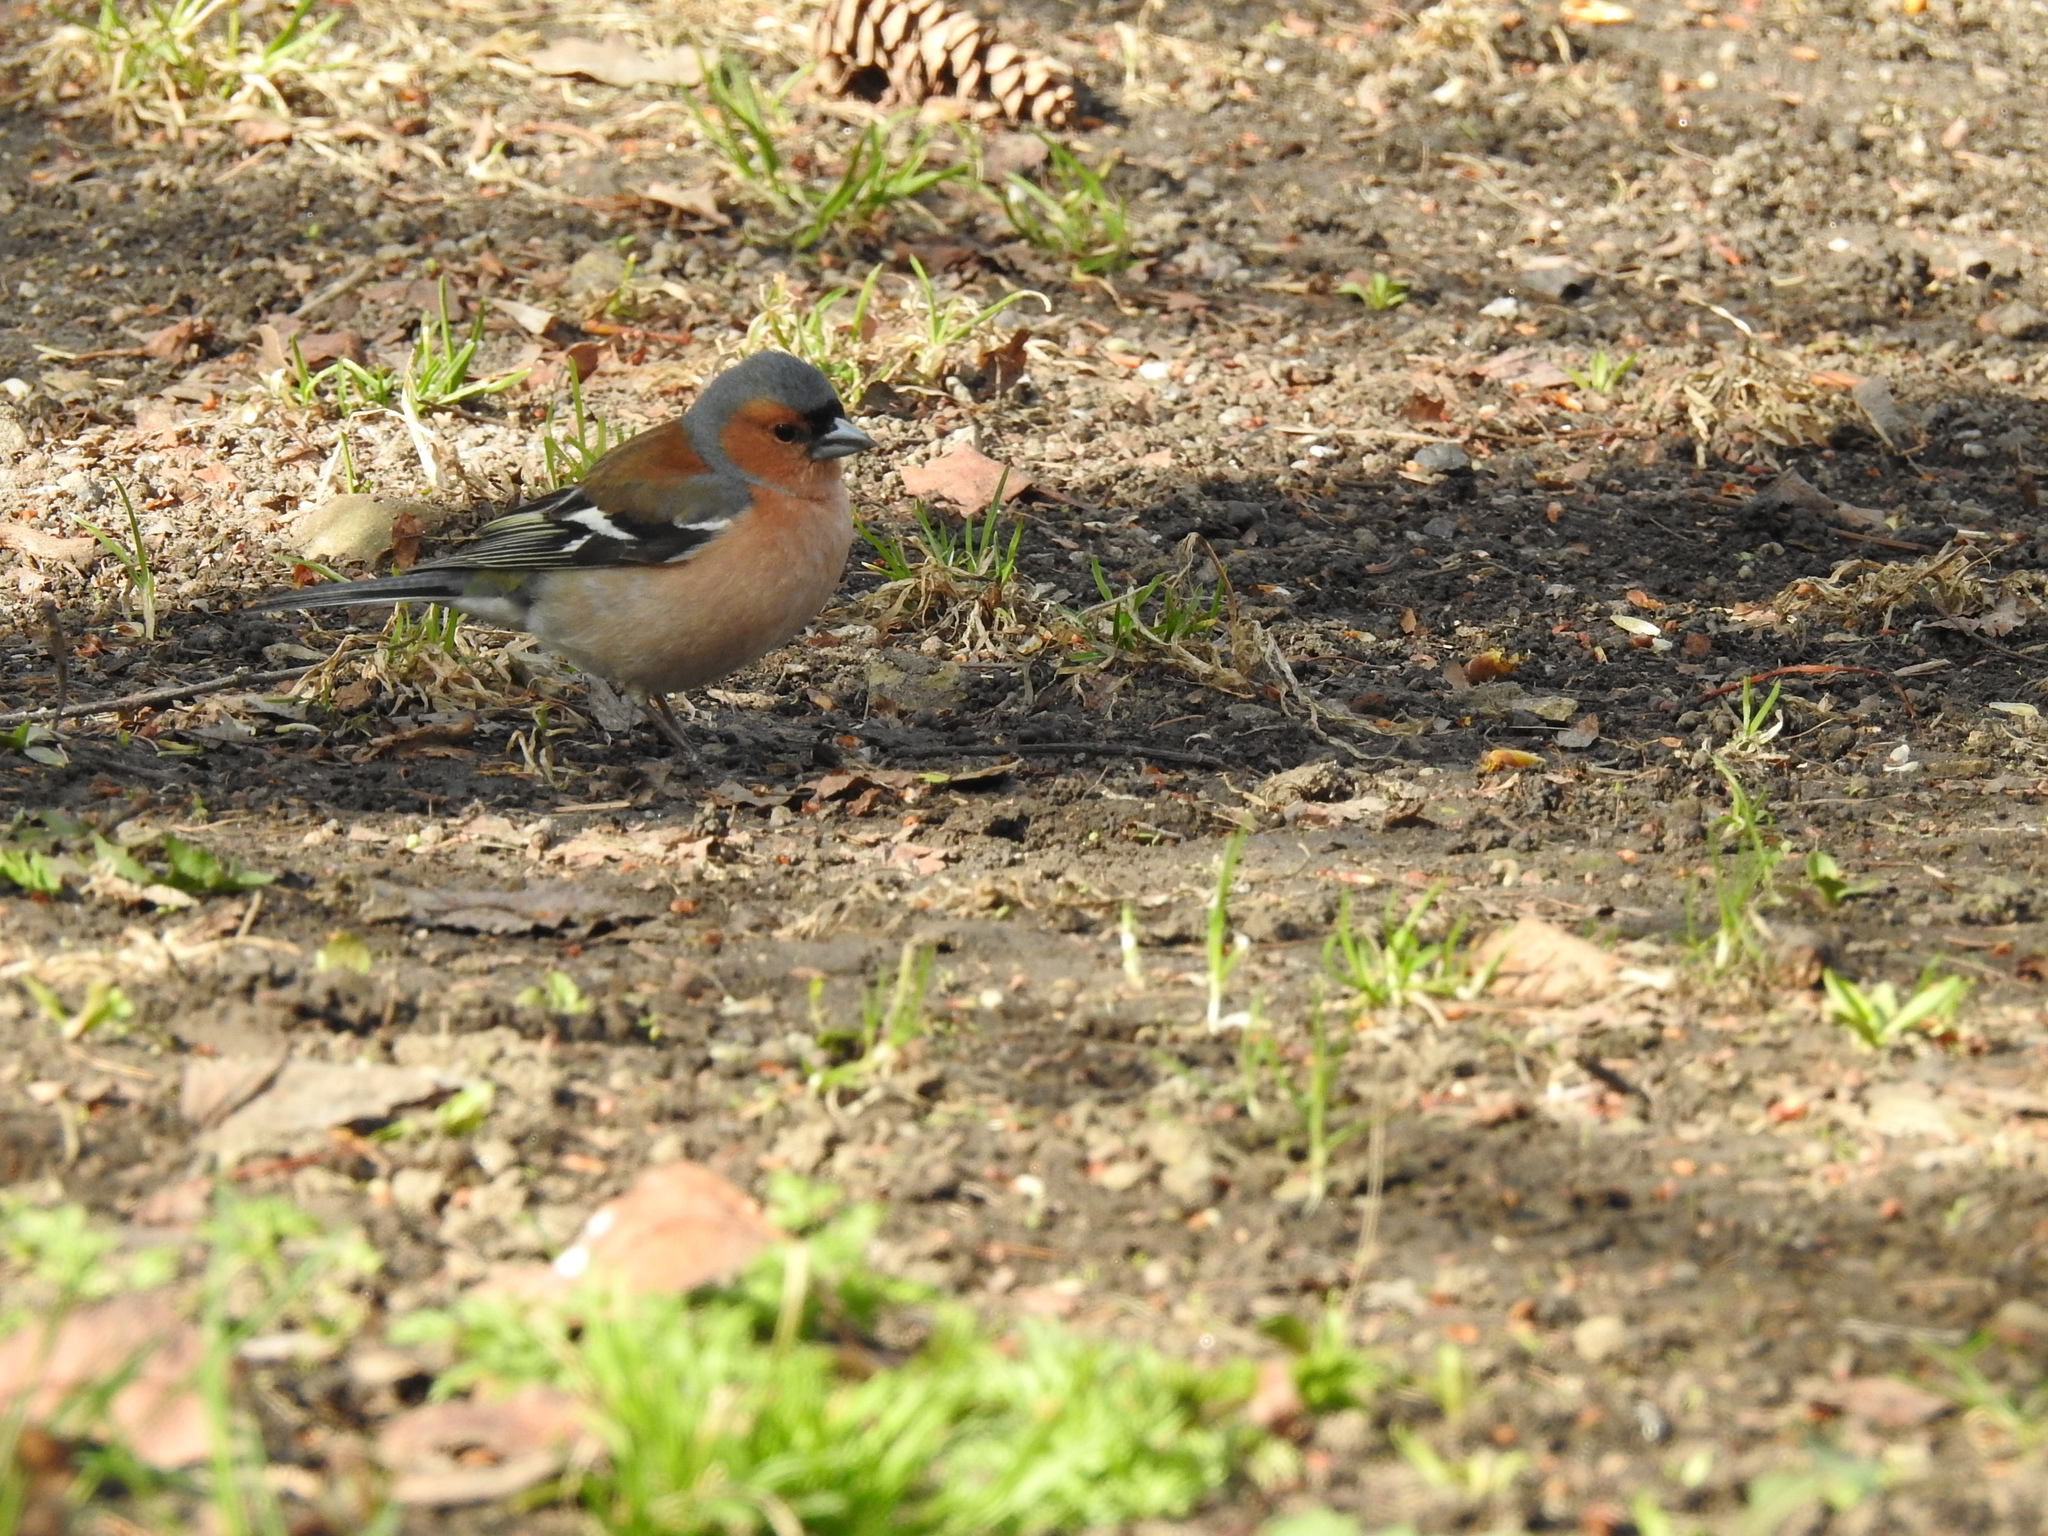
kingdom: Animalia
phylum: Chordata
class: Aves
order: Passeriformes
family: Fringillidae
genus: Fringilla
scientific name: Fringilla coelebs
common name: Common chaffinch
